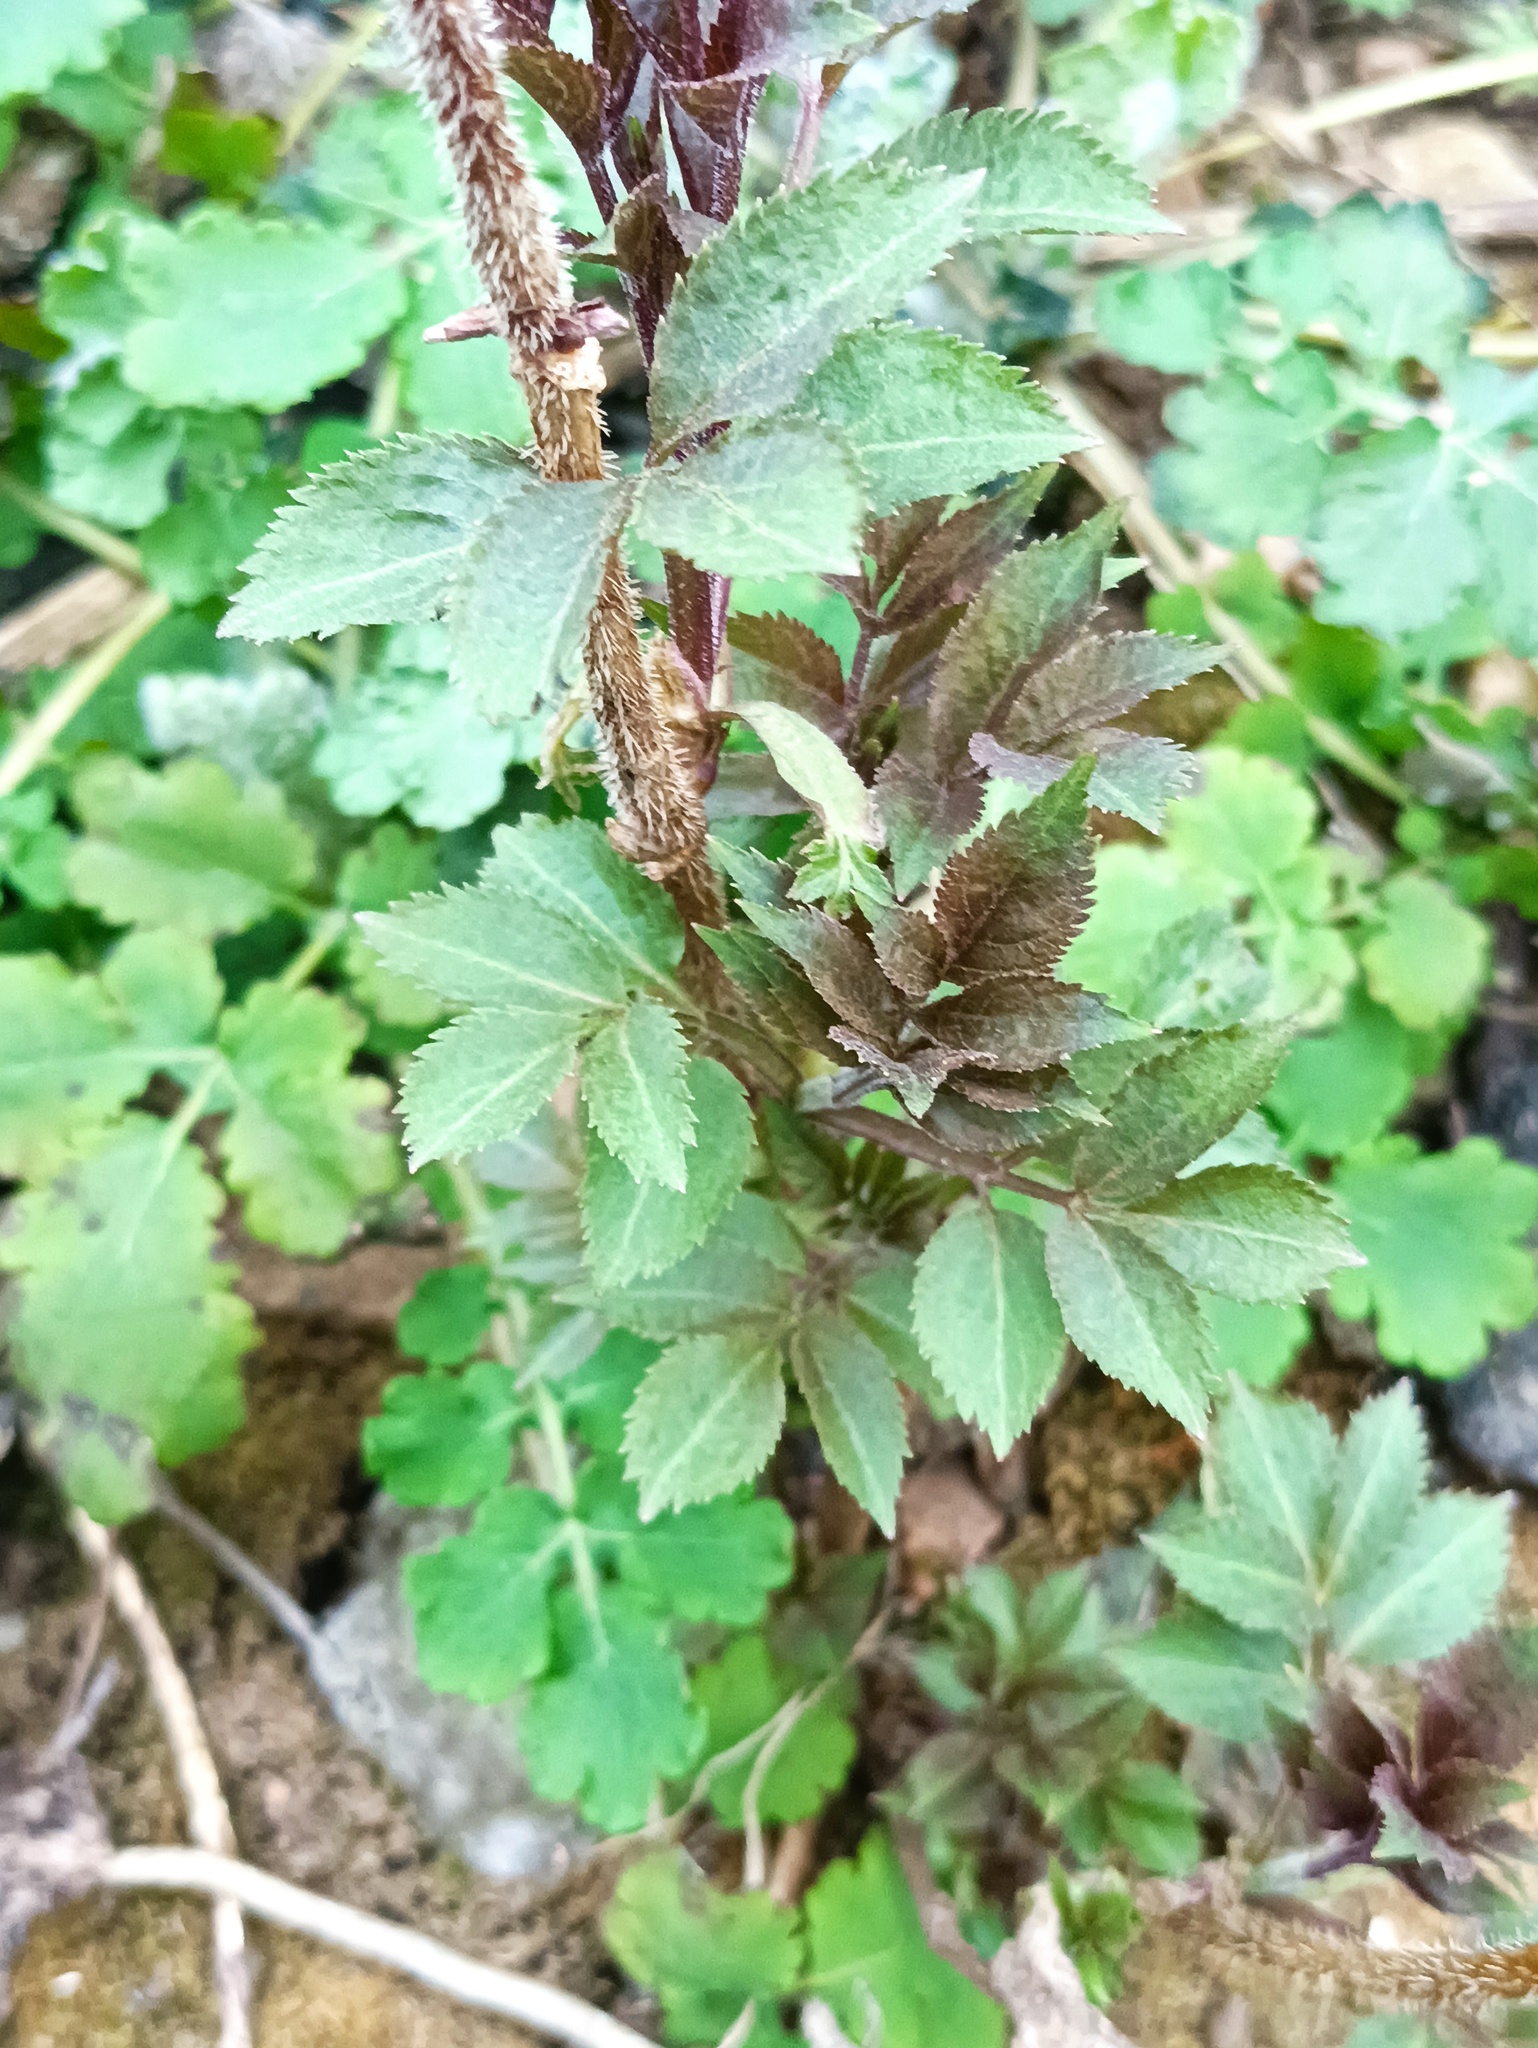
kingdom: Plantae
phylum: Tracheophyta
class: Magnoliopsida
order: Dipsacales
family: Viburnaceae
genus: Sambucus
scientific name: Sambucus sibirica
